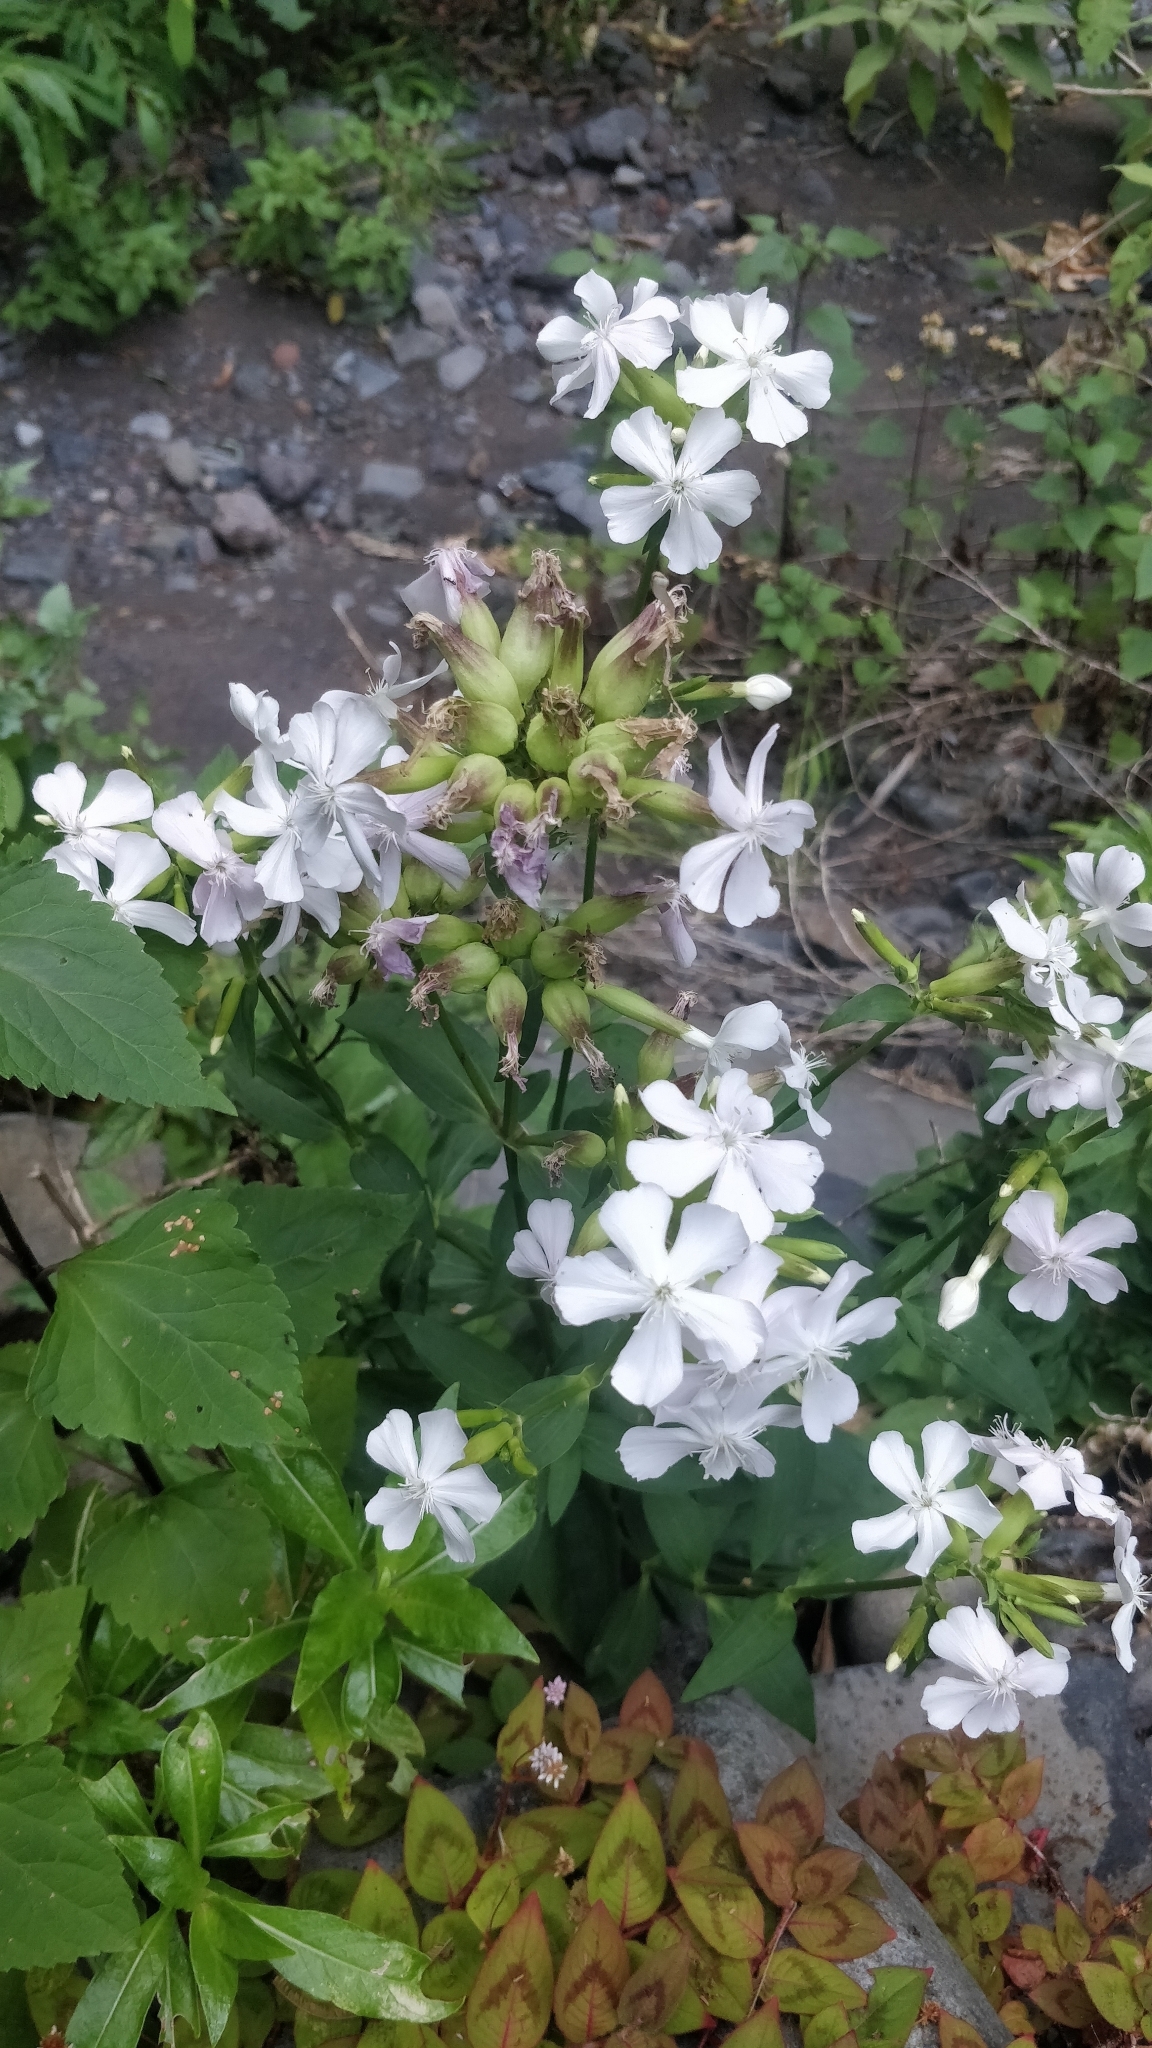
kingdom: Plantae
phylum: Tracheophyta
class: Magnoliopsida
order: Caryophyllales
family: Caryophyllaceae
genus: Saponaria
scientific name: Saponaria officinalis
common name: Soapwort
